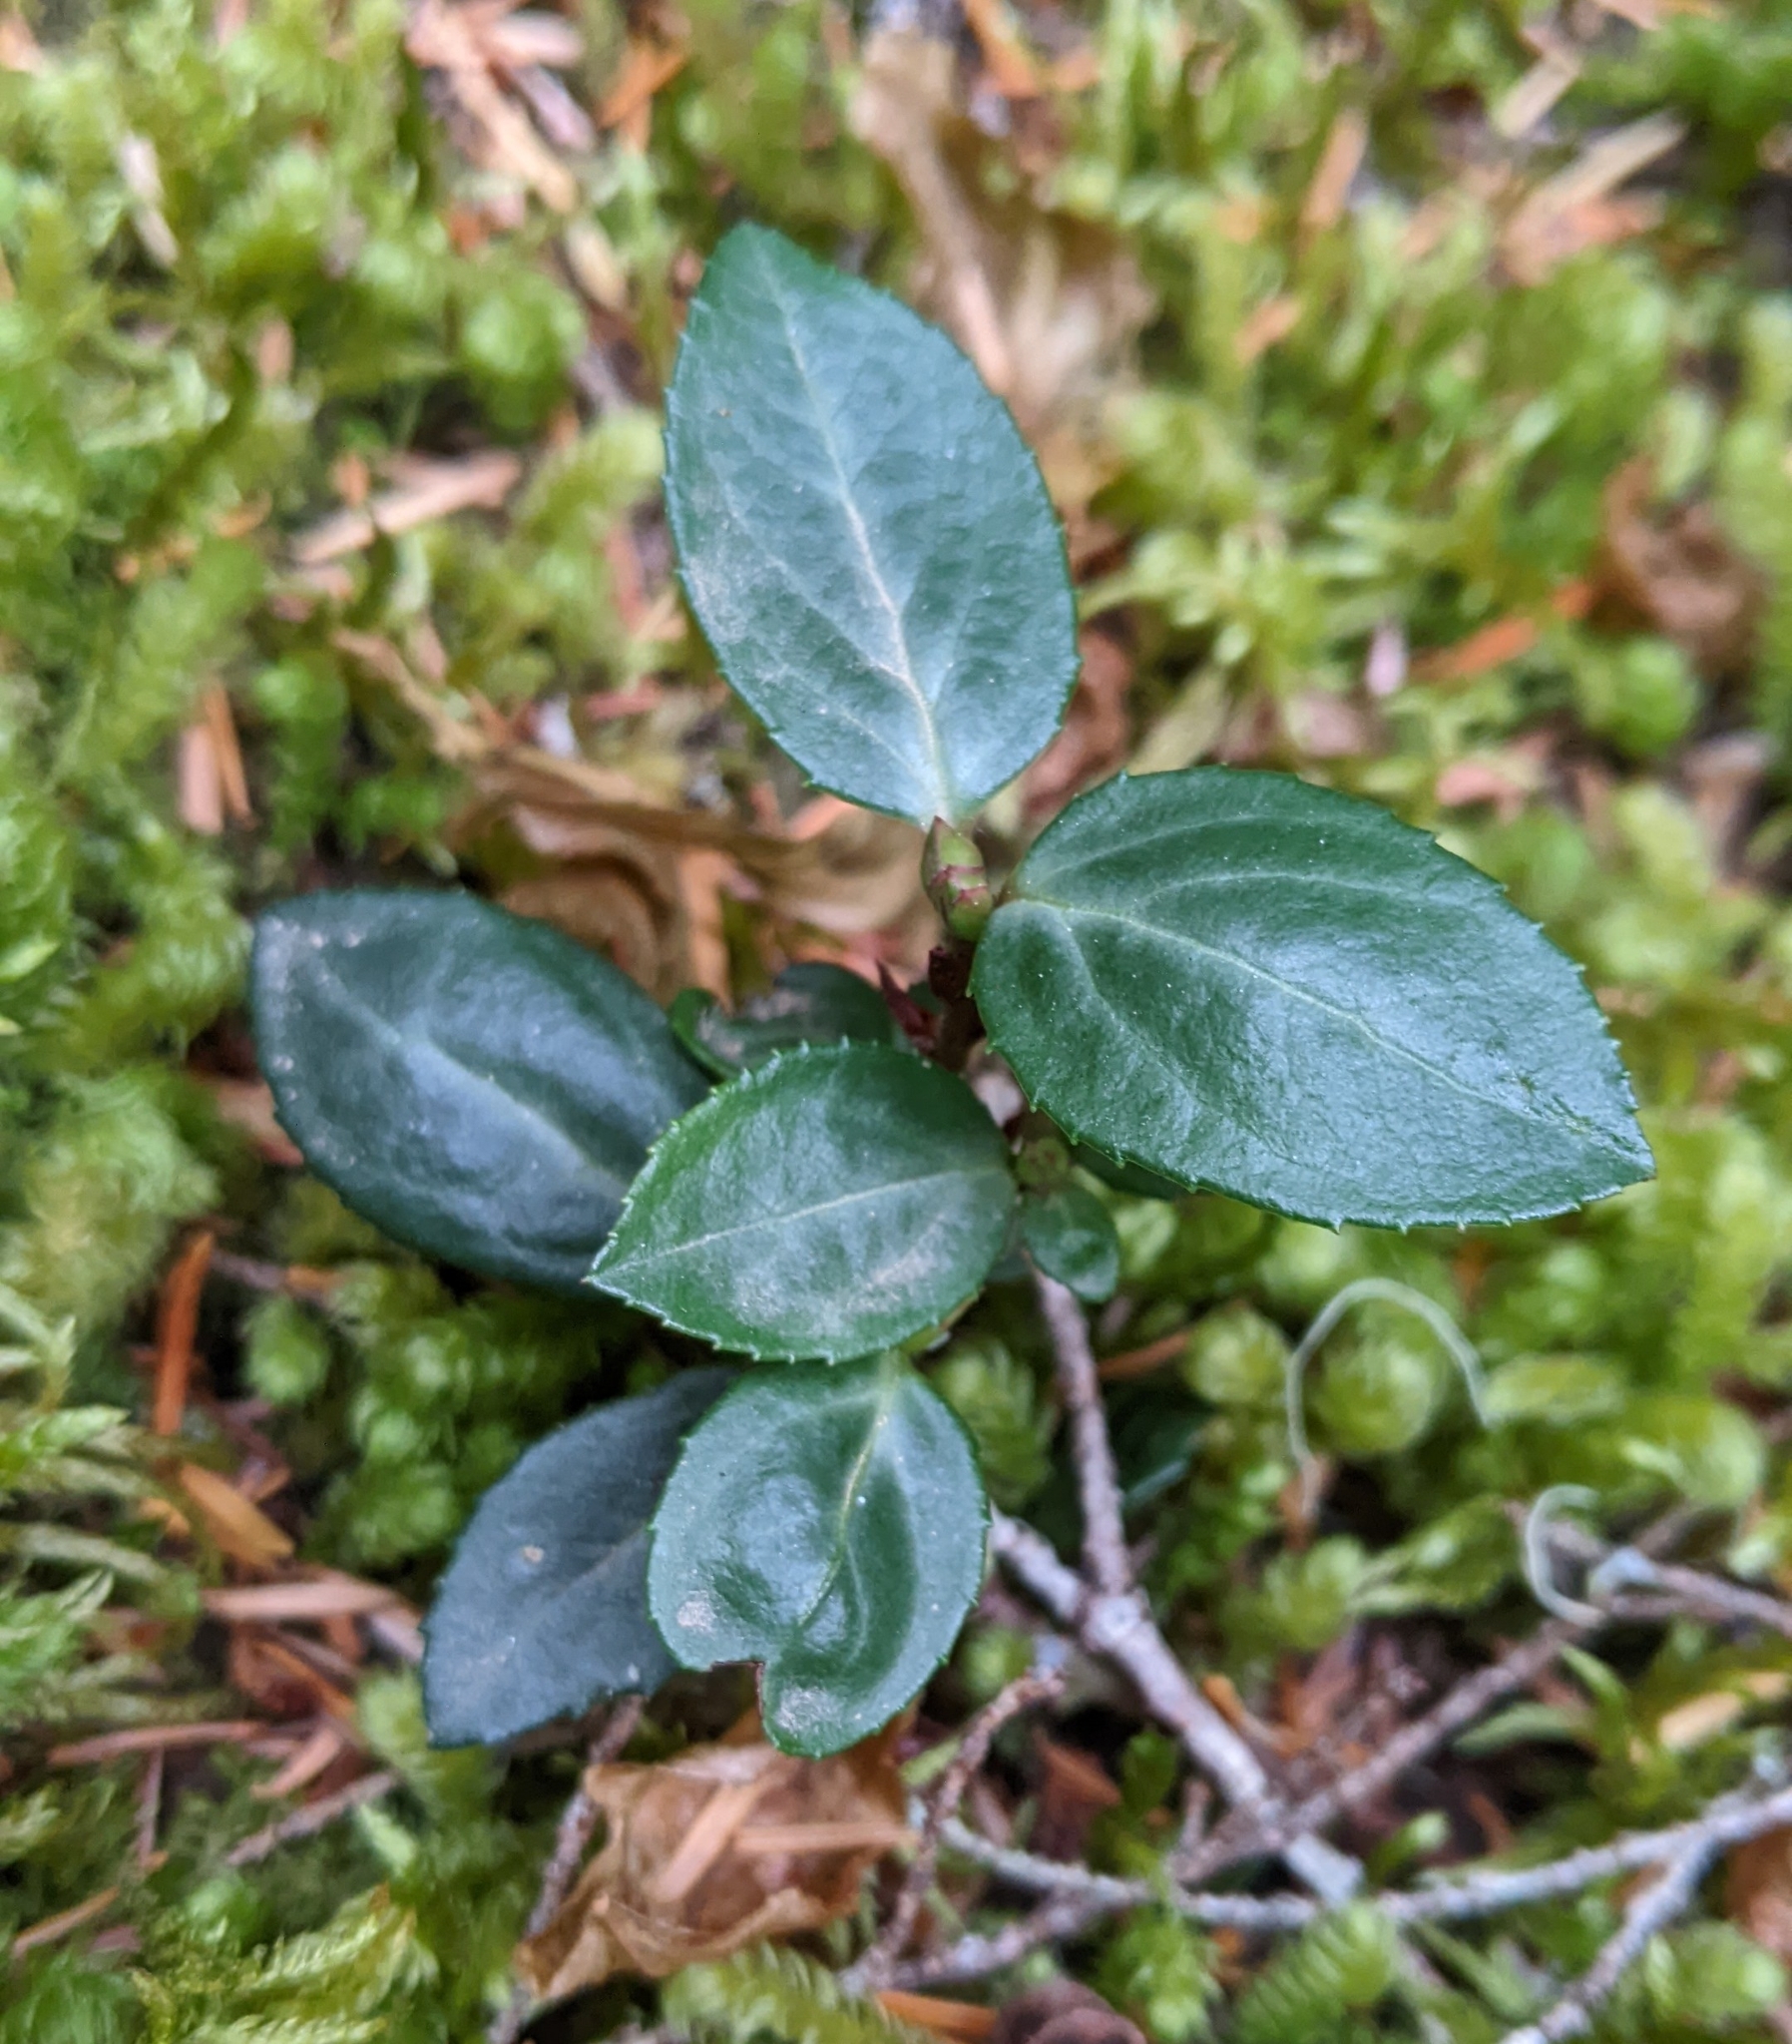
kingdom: Plantae
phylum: Tracheophyta
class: Magnoliopsida
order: Ericales
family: Ericaceae
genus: Chimaphila
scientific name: Chimaphila menziesii
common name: Menzies' pipsissewa
